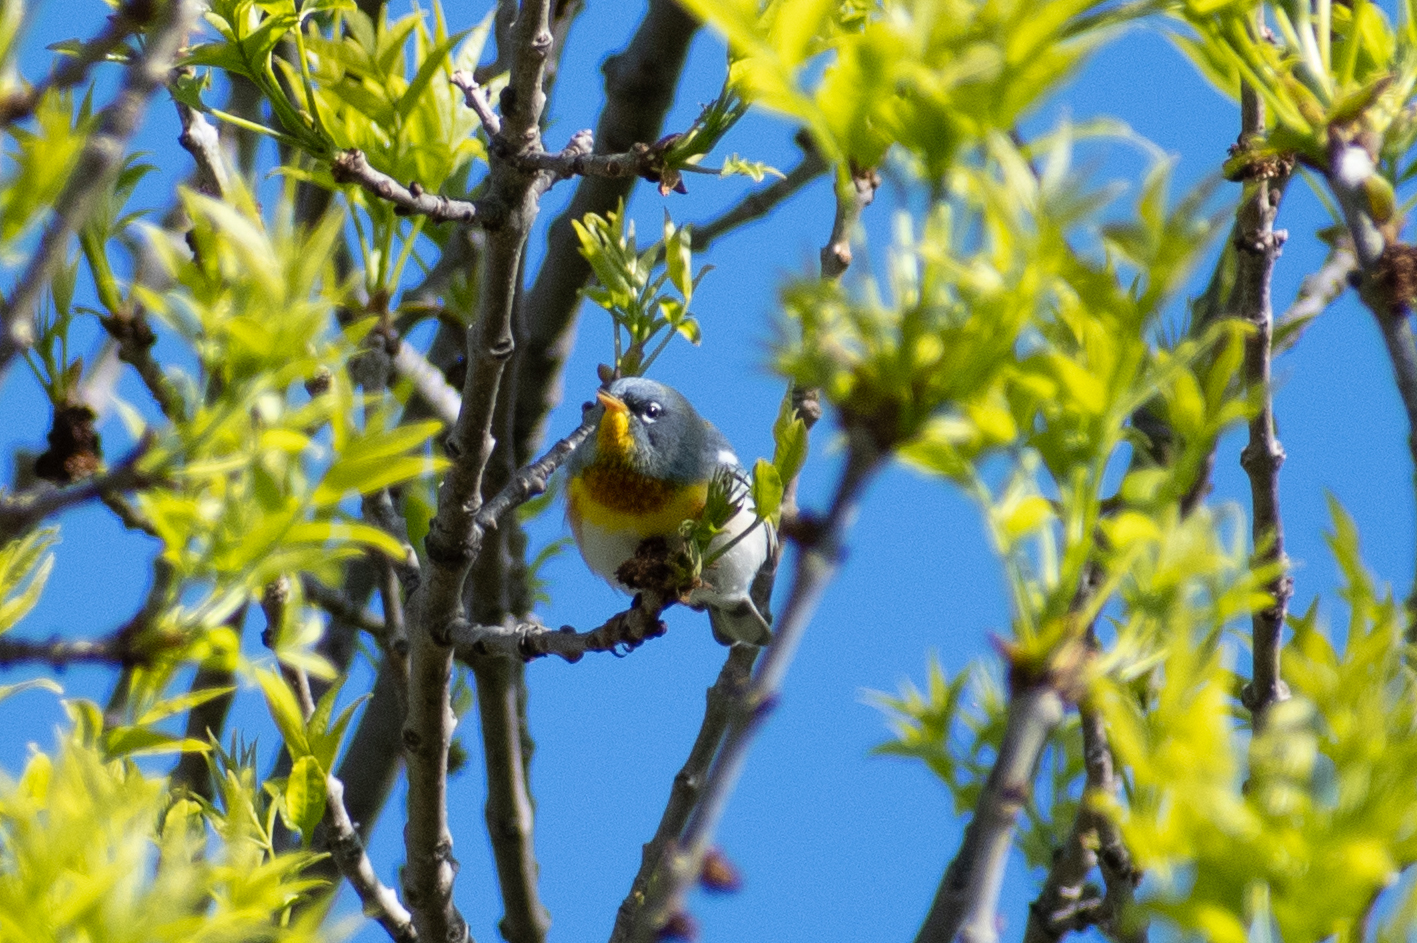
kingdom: Animalia
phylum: Chordata
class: Aves
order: Passeriformes
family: Parulidae
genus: Setophaga
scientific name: Setophaga americana
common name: Northern parula
